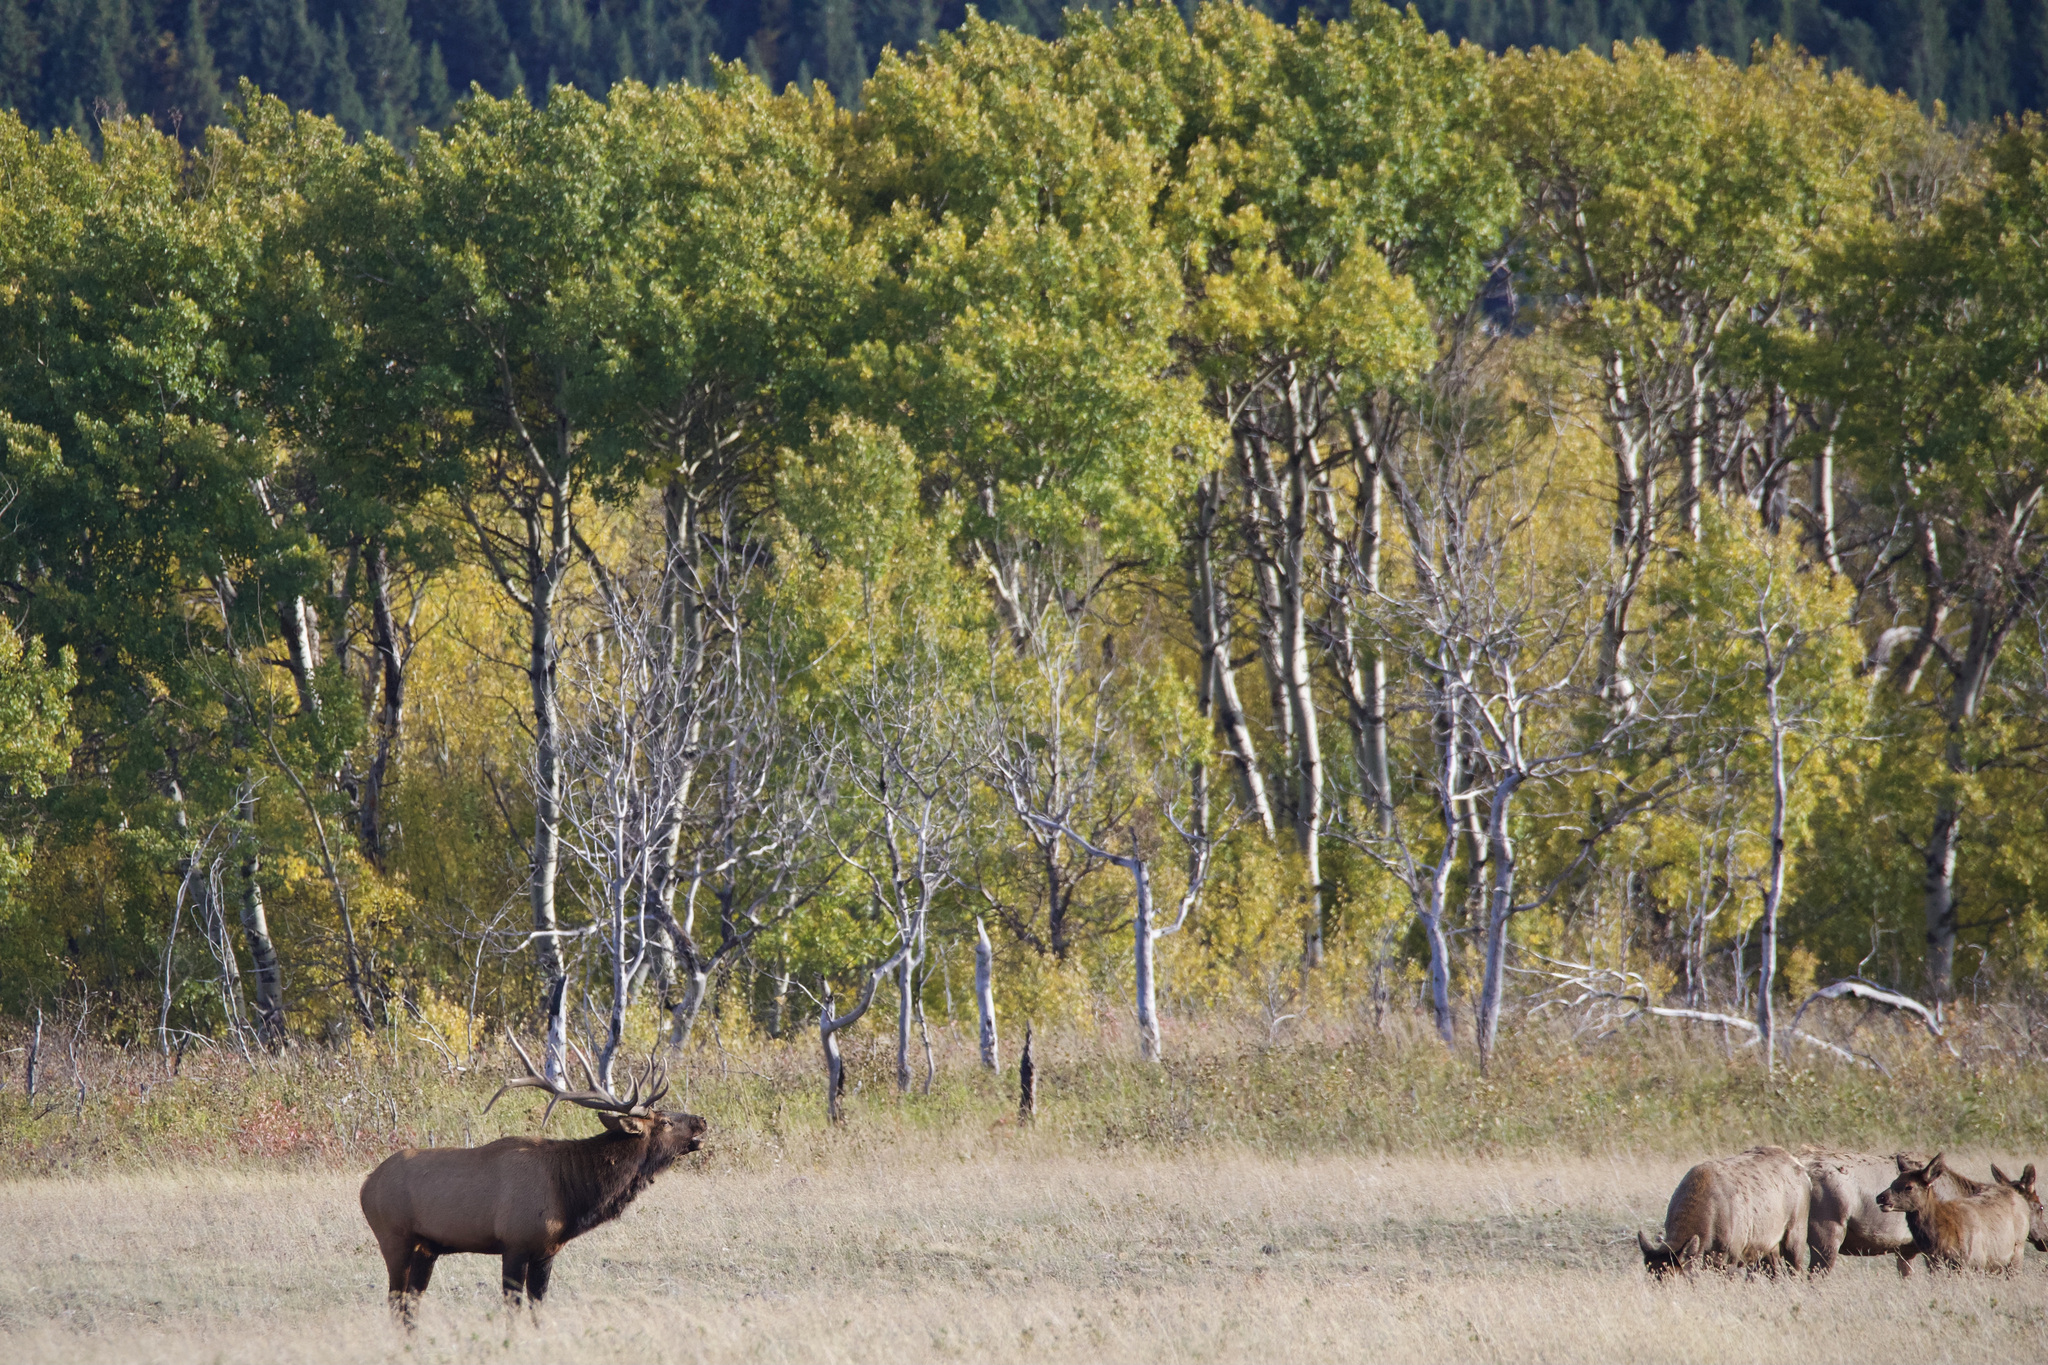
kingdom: Animalia
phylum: Chordata
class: Mammalia
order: Artiodactyla
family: Cervidae
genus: Cervus
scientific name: Cervus elaphus
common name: Red deer
